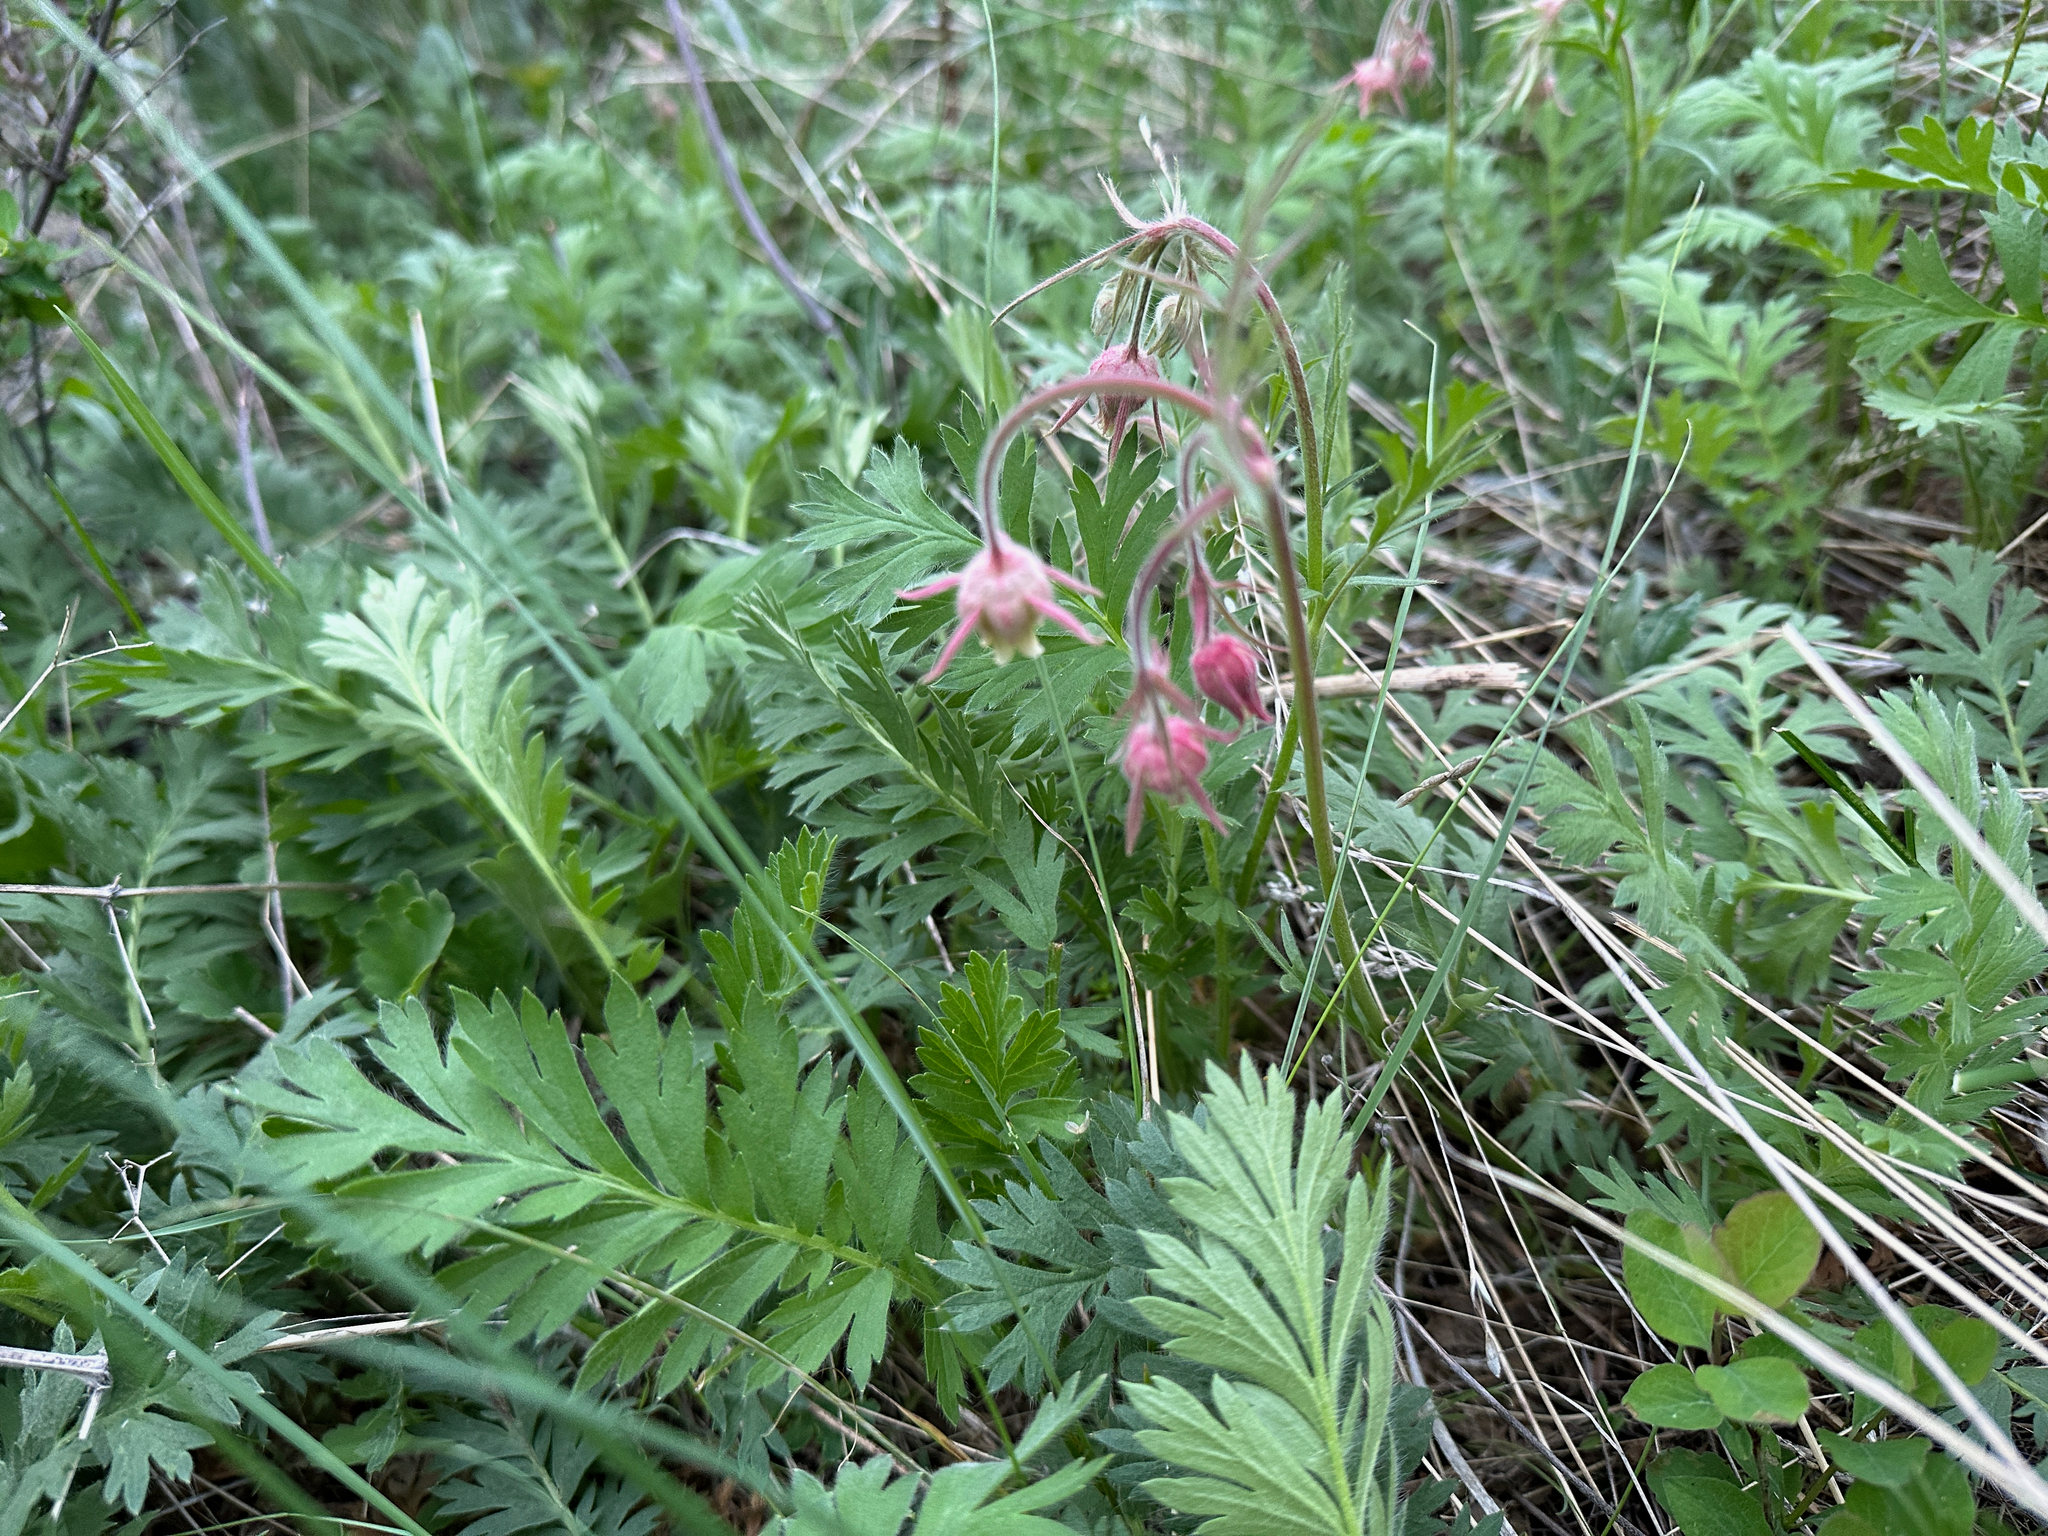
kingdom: Plantae
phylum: Tracheophyta
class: Magnoliopsida
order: Rosales
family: Rosaceae
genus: Geum
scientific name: Geum triflorum
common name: Old man's whiskers
